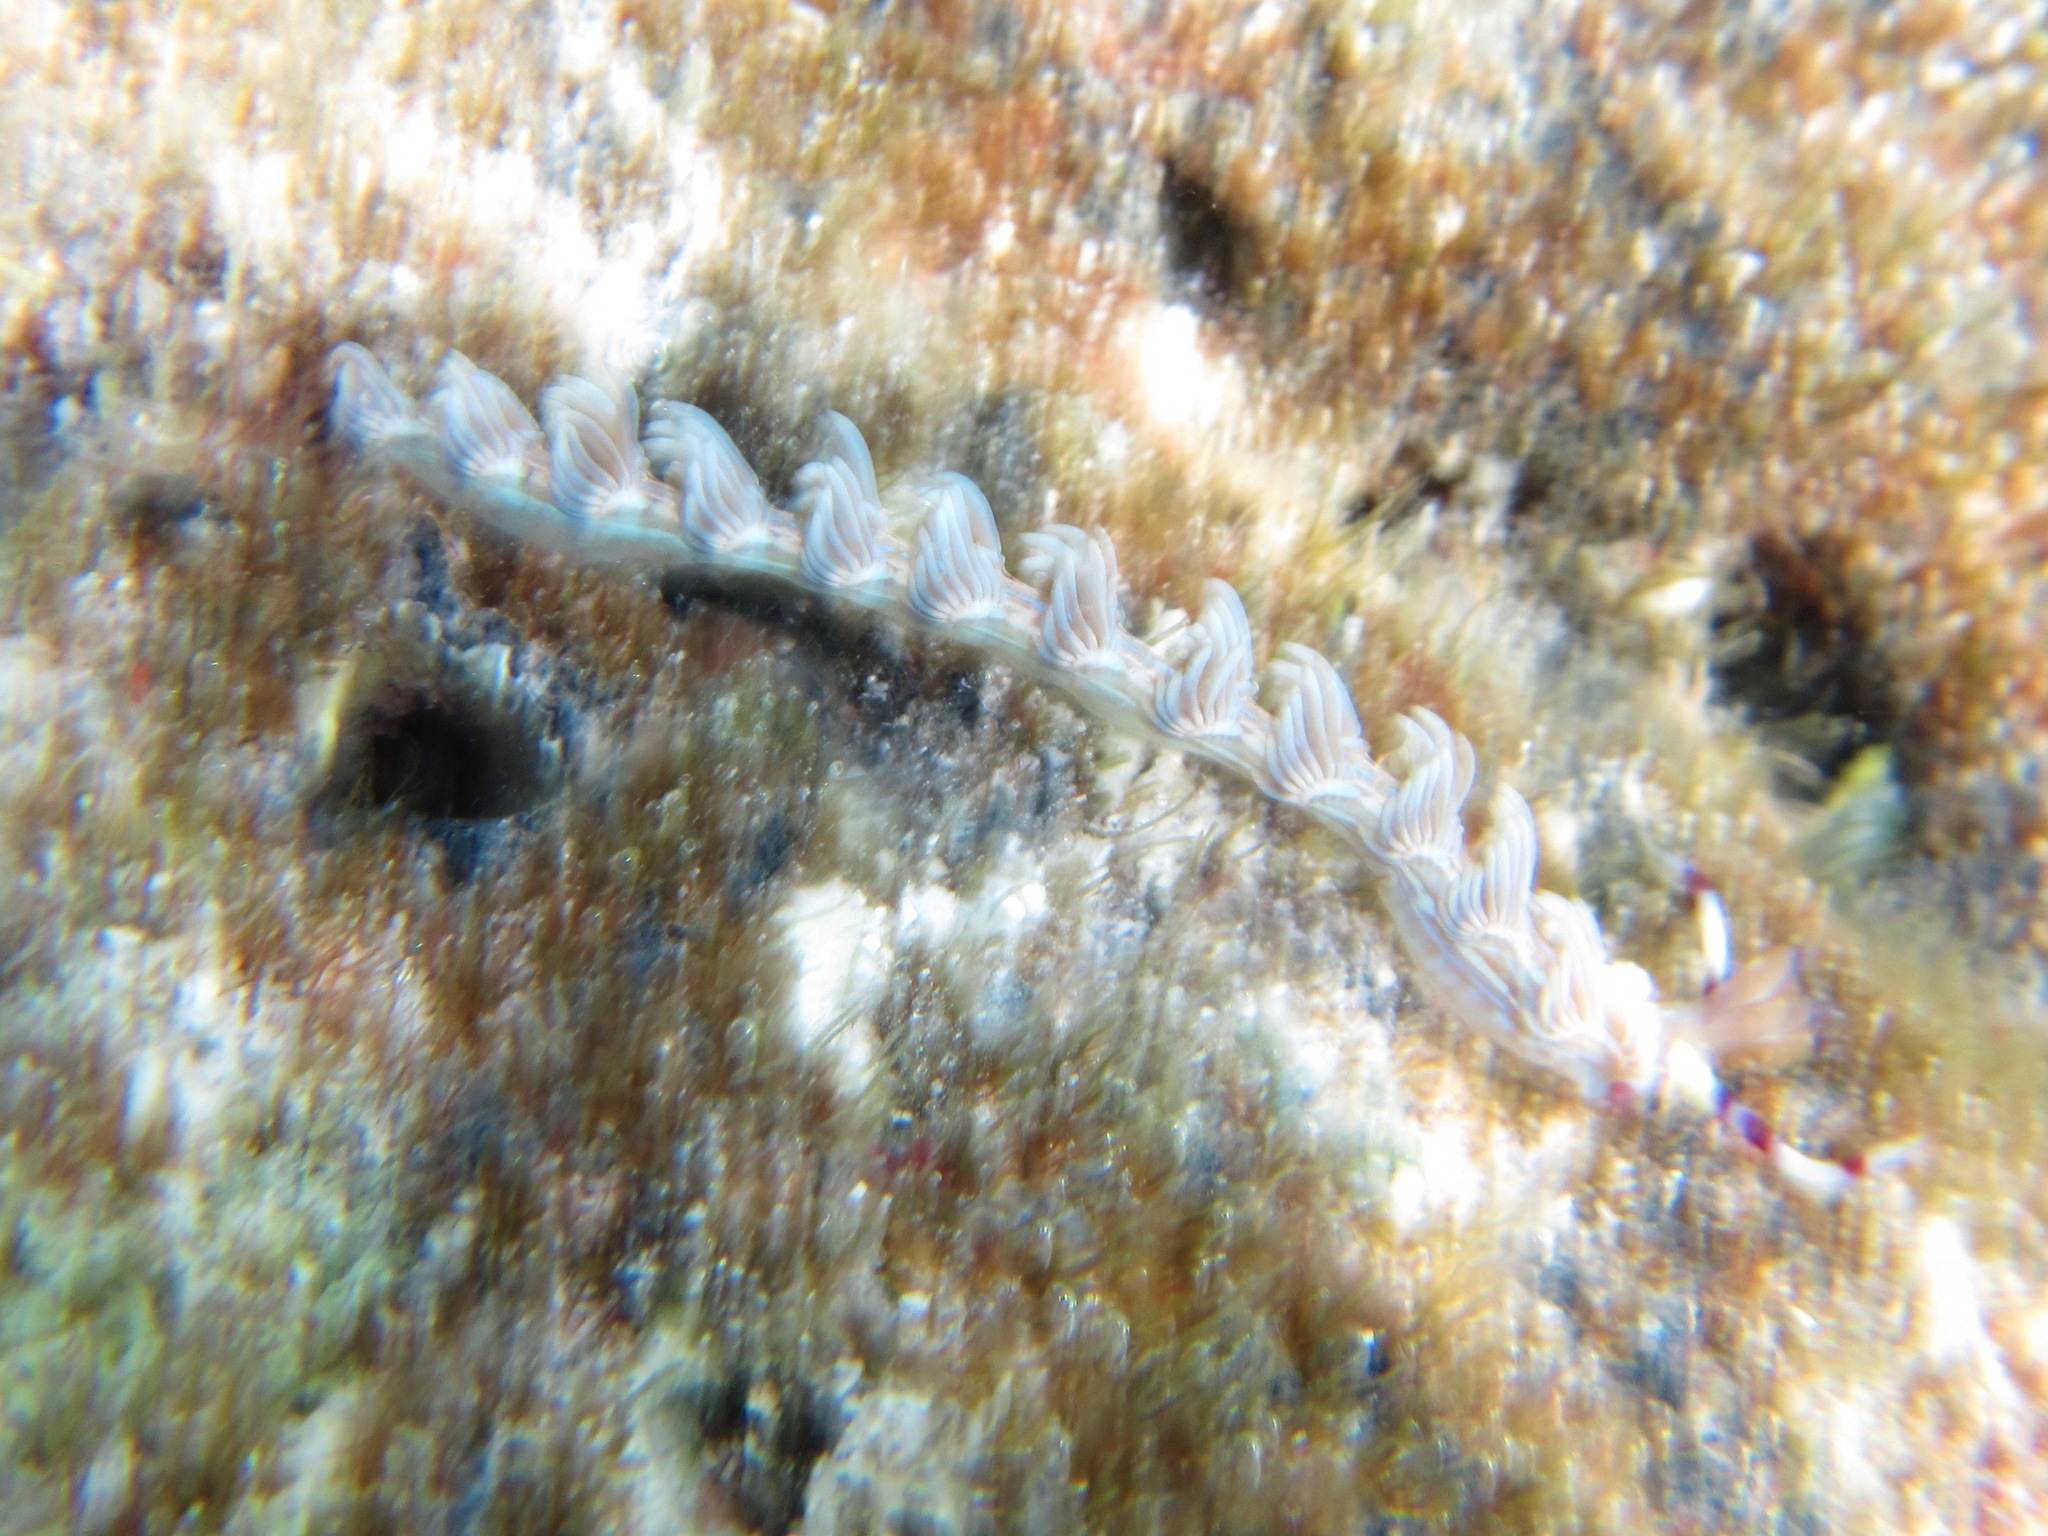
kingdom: Animalia
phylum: Mollusca
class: Gastropoda
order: Nudibranchia
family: Facelinidae
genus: Pteraeolidia
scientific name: Pteraeolidia semperi
